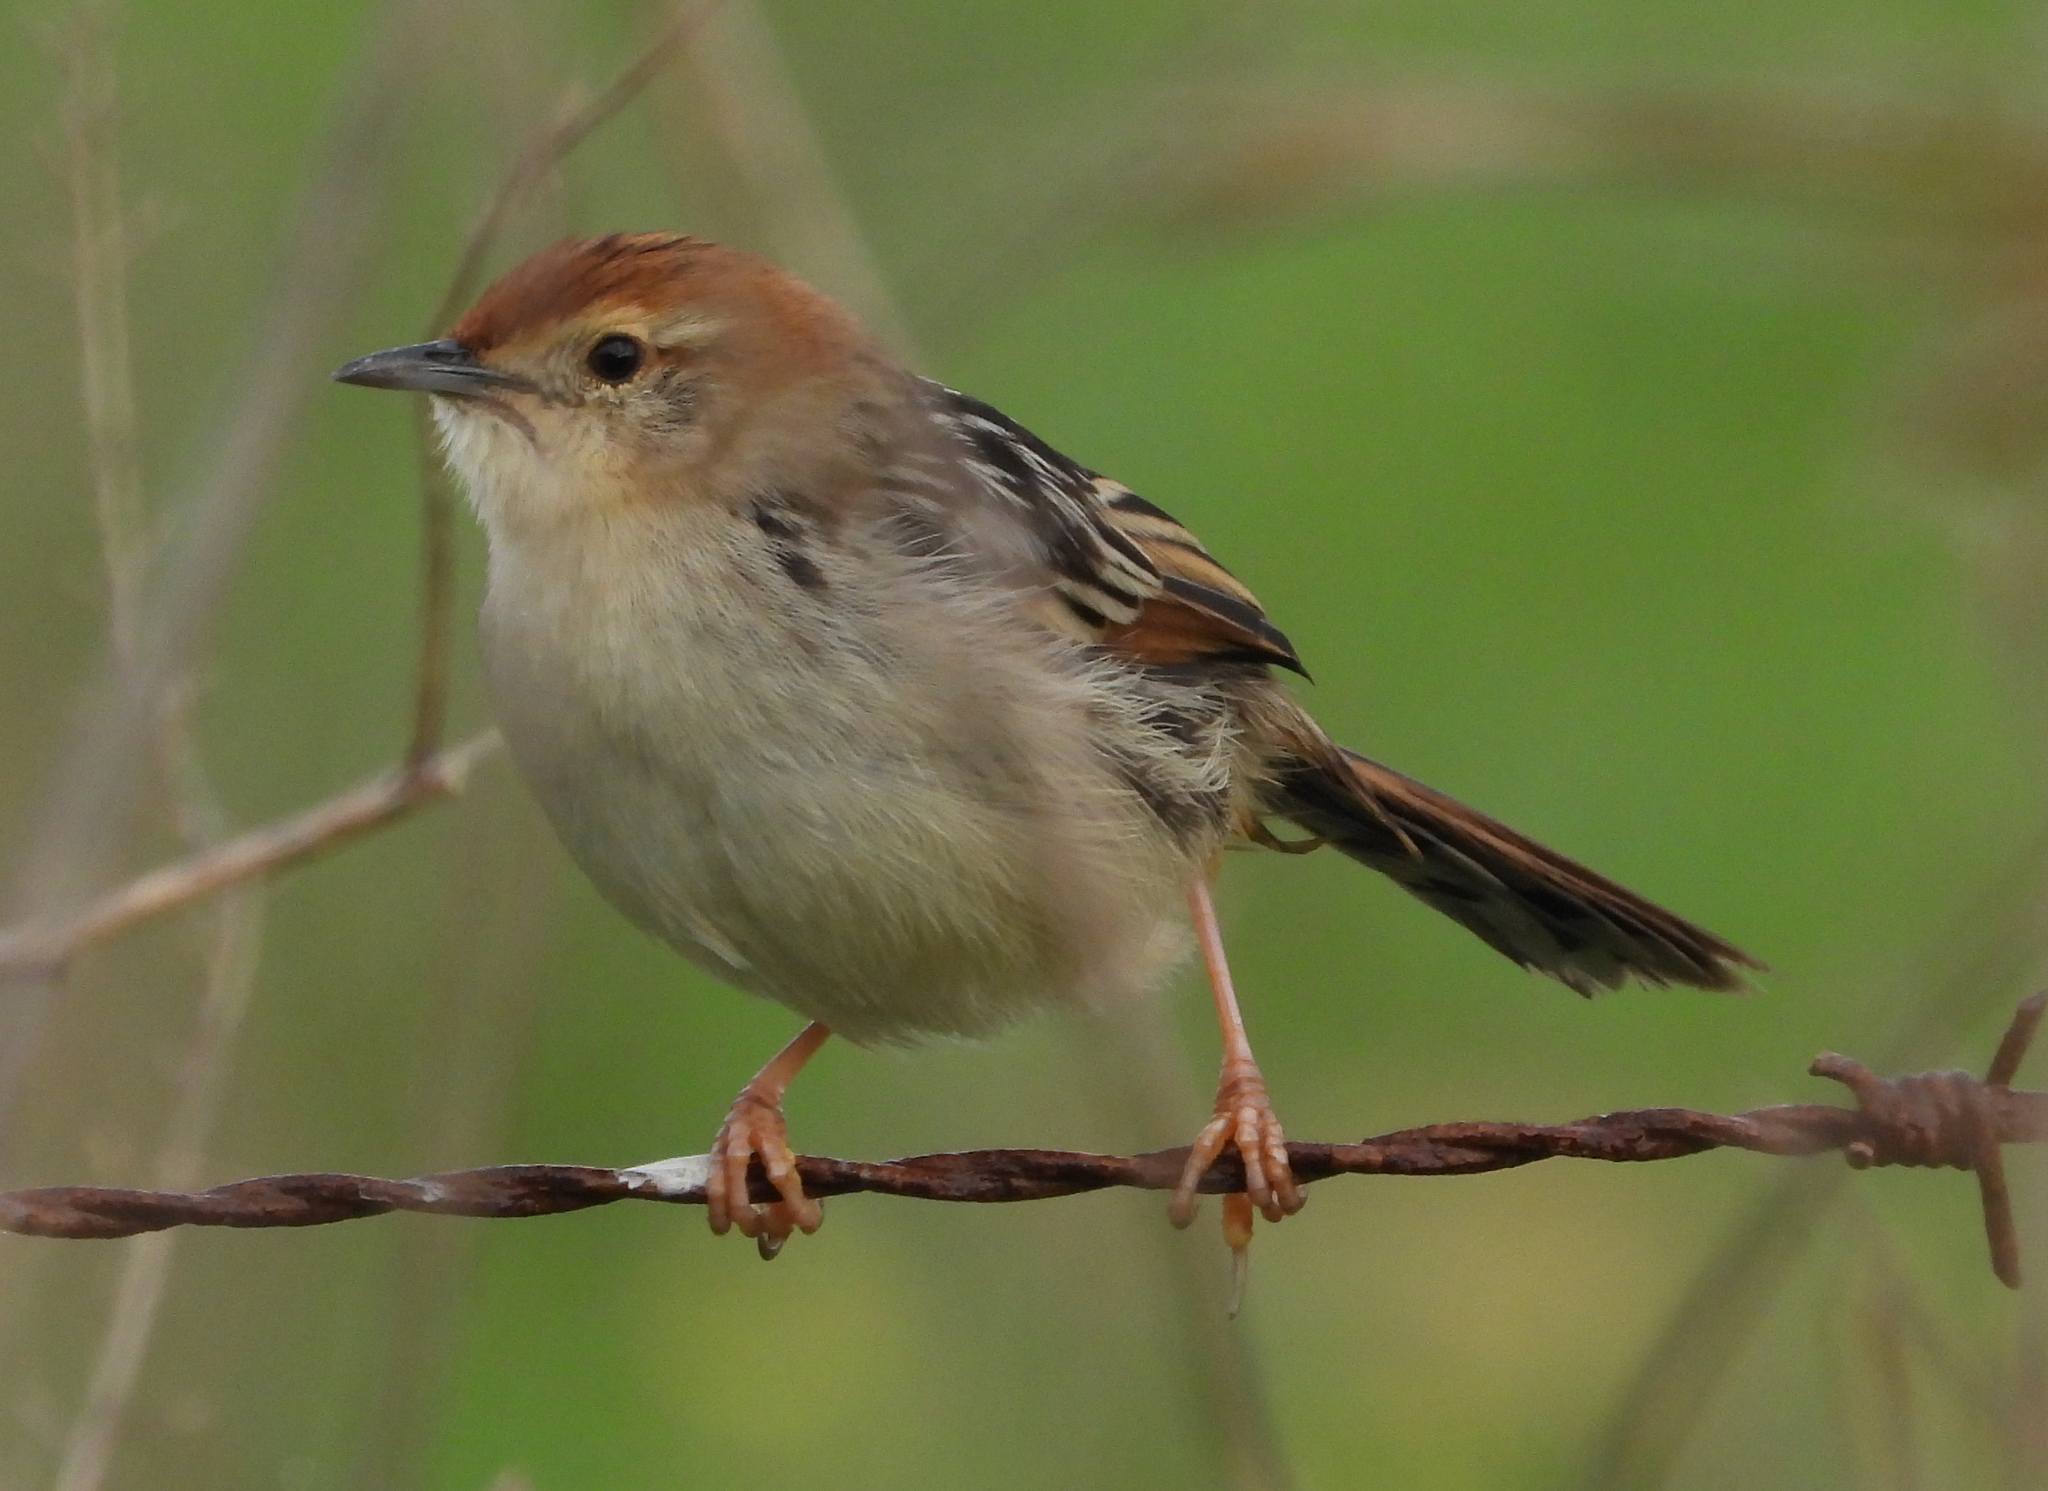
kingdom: Animalia
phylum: Chordata
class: Aves
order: Passeriformes
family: Cisticolidae
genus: Cisticola
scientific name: Cisticola tinniens
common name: Levaillant's cisticola
